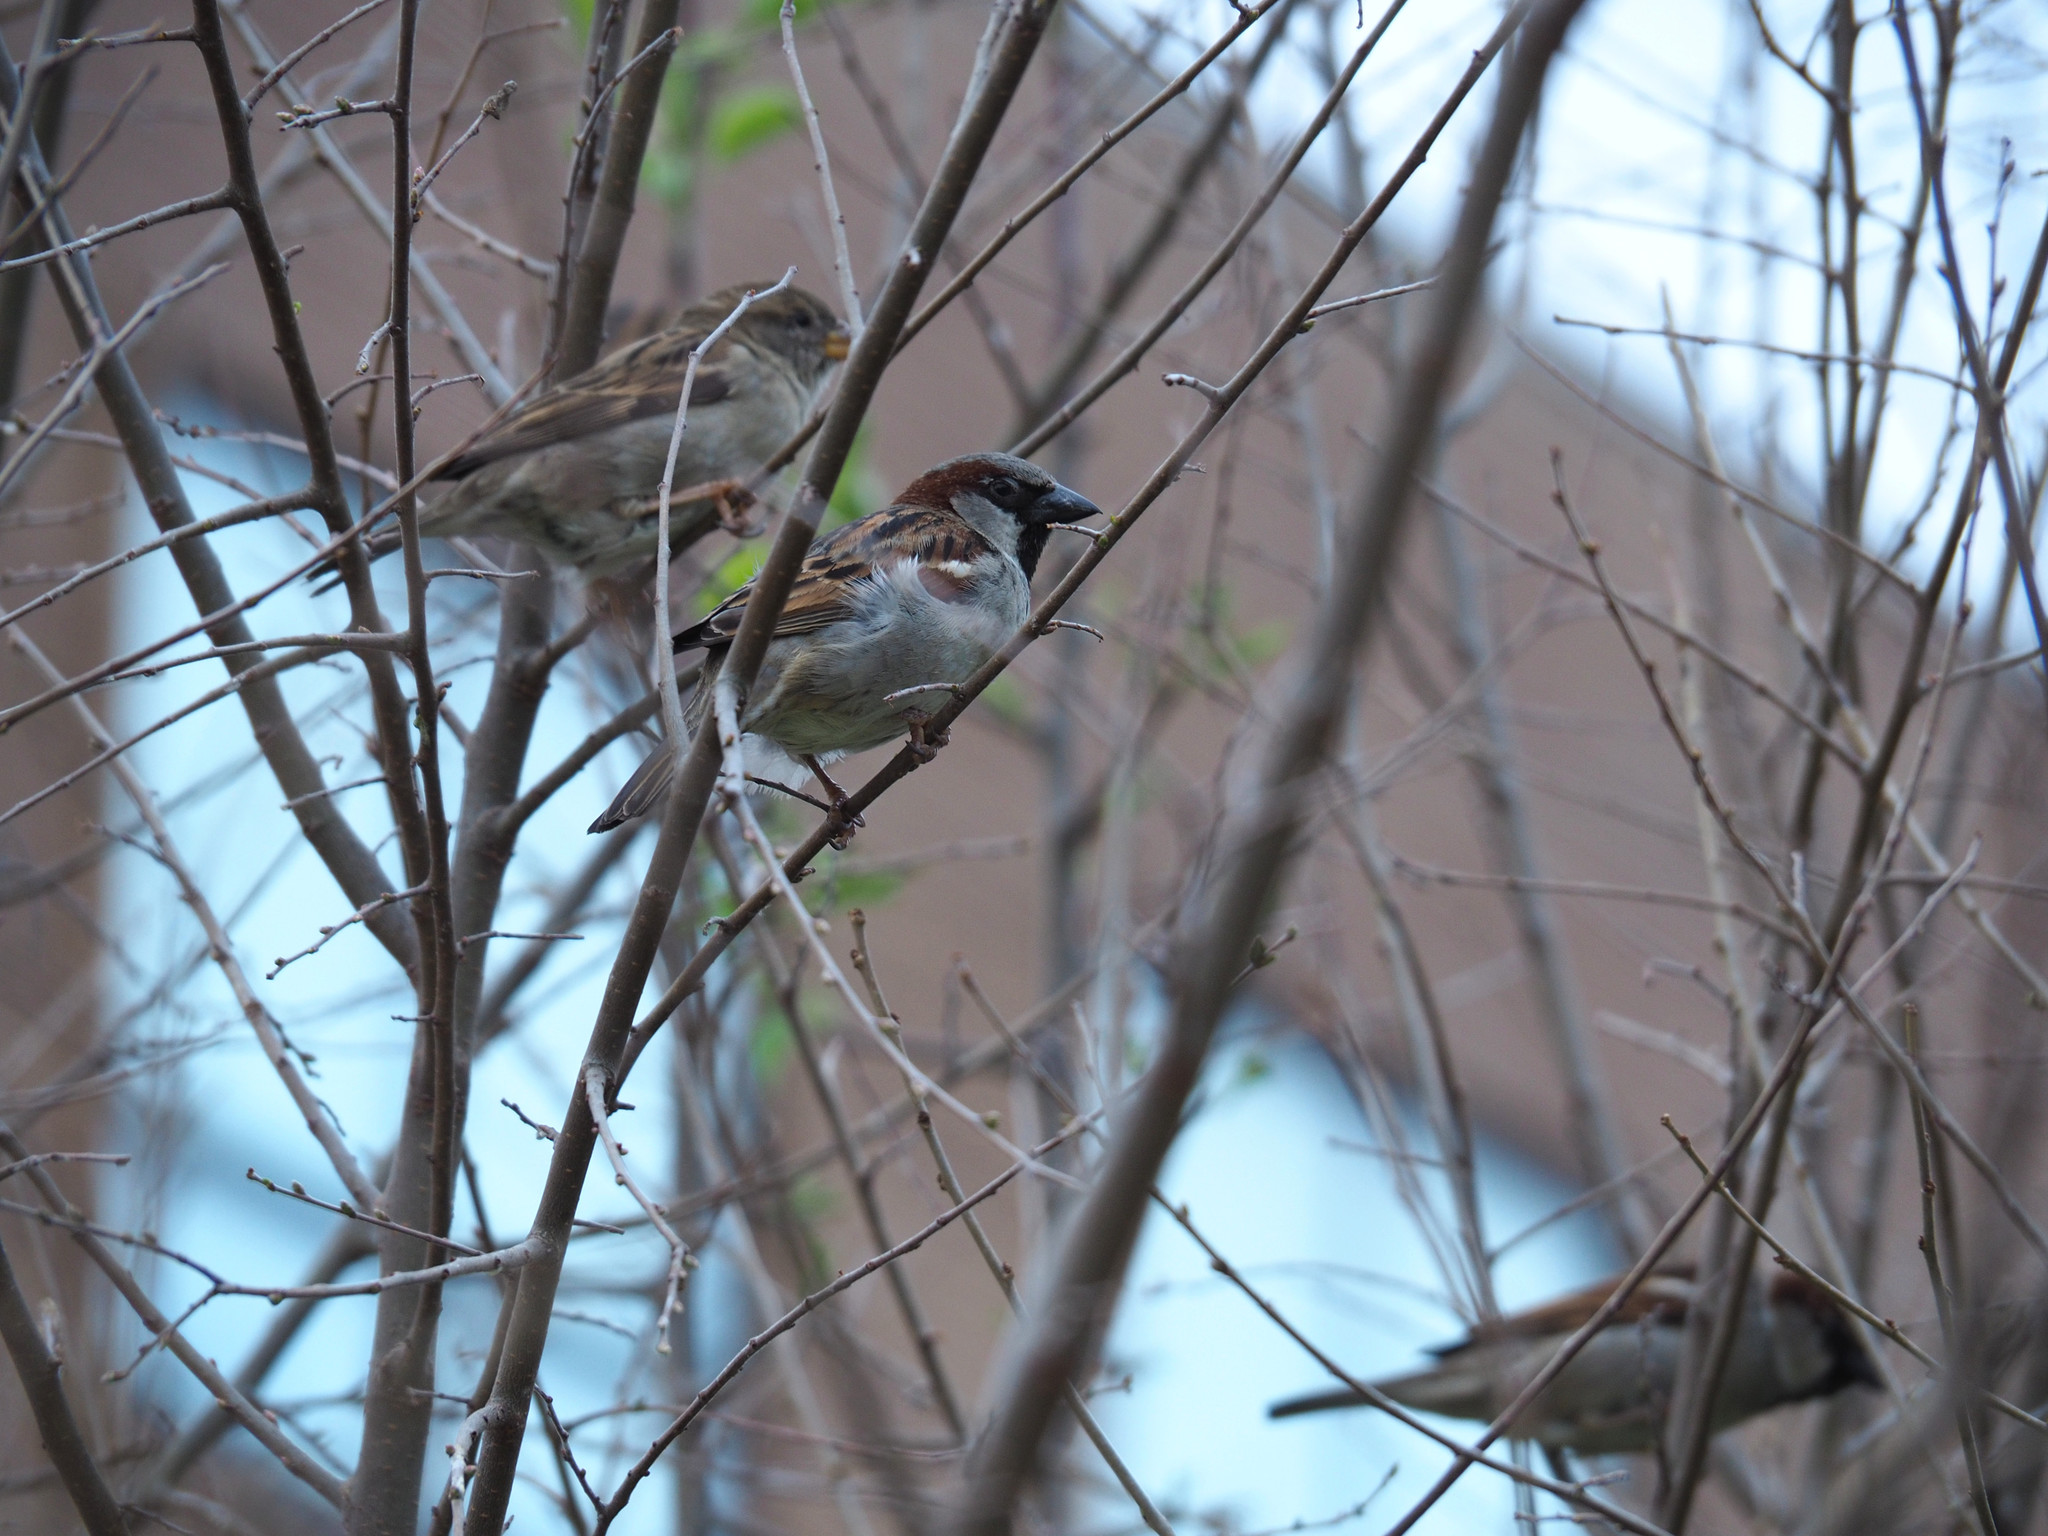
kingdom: Animalia
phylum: Chordata
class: Aves
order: Passeriformes
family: Passeridae
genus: Passer
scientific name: Passer domesticus
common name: House sparrow
